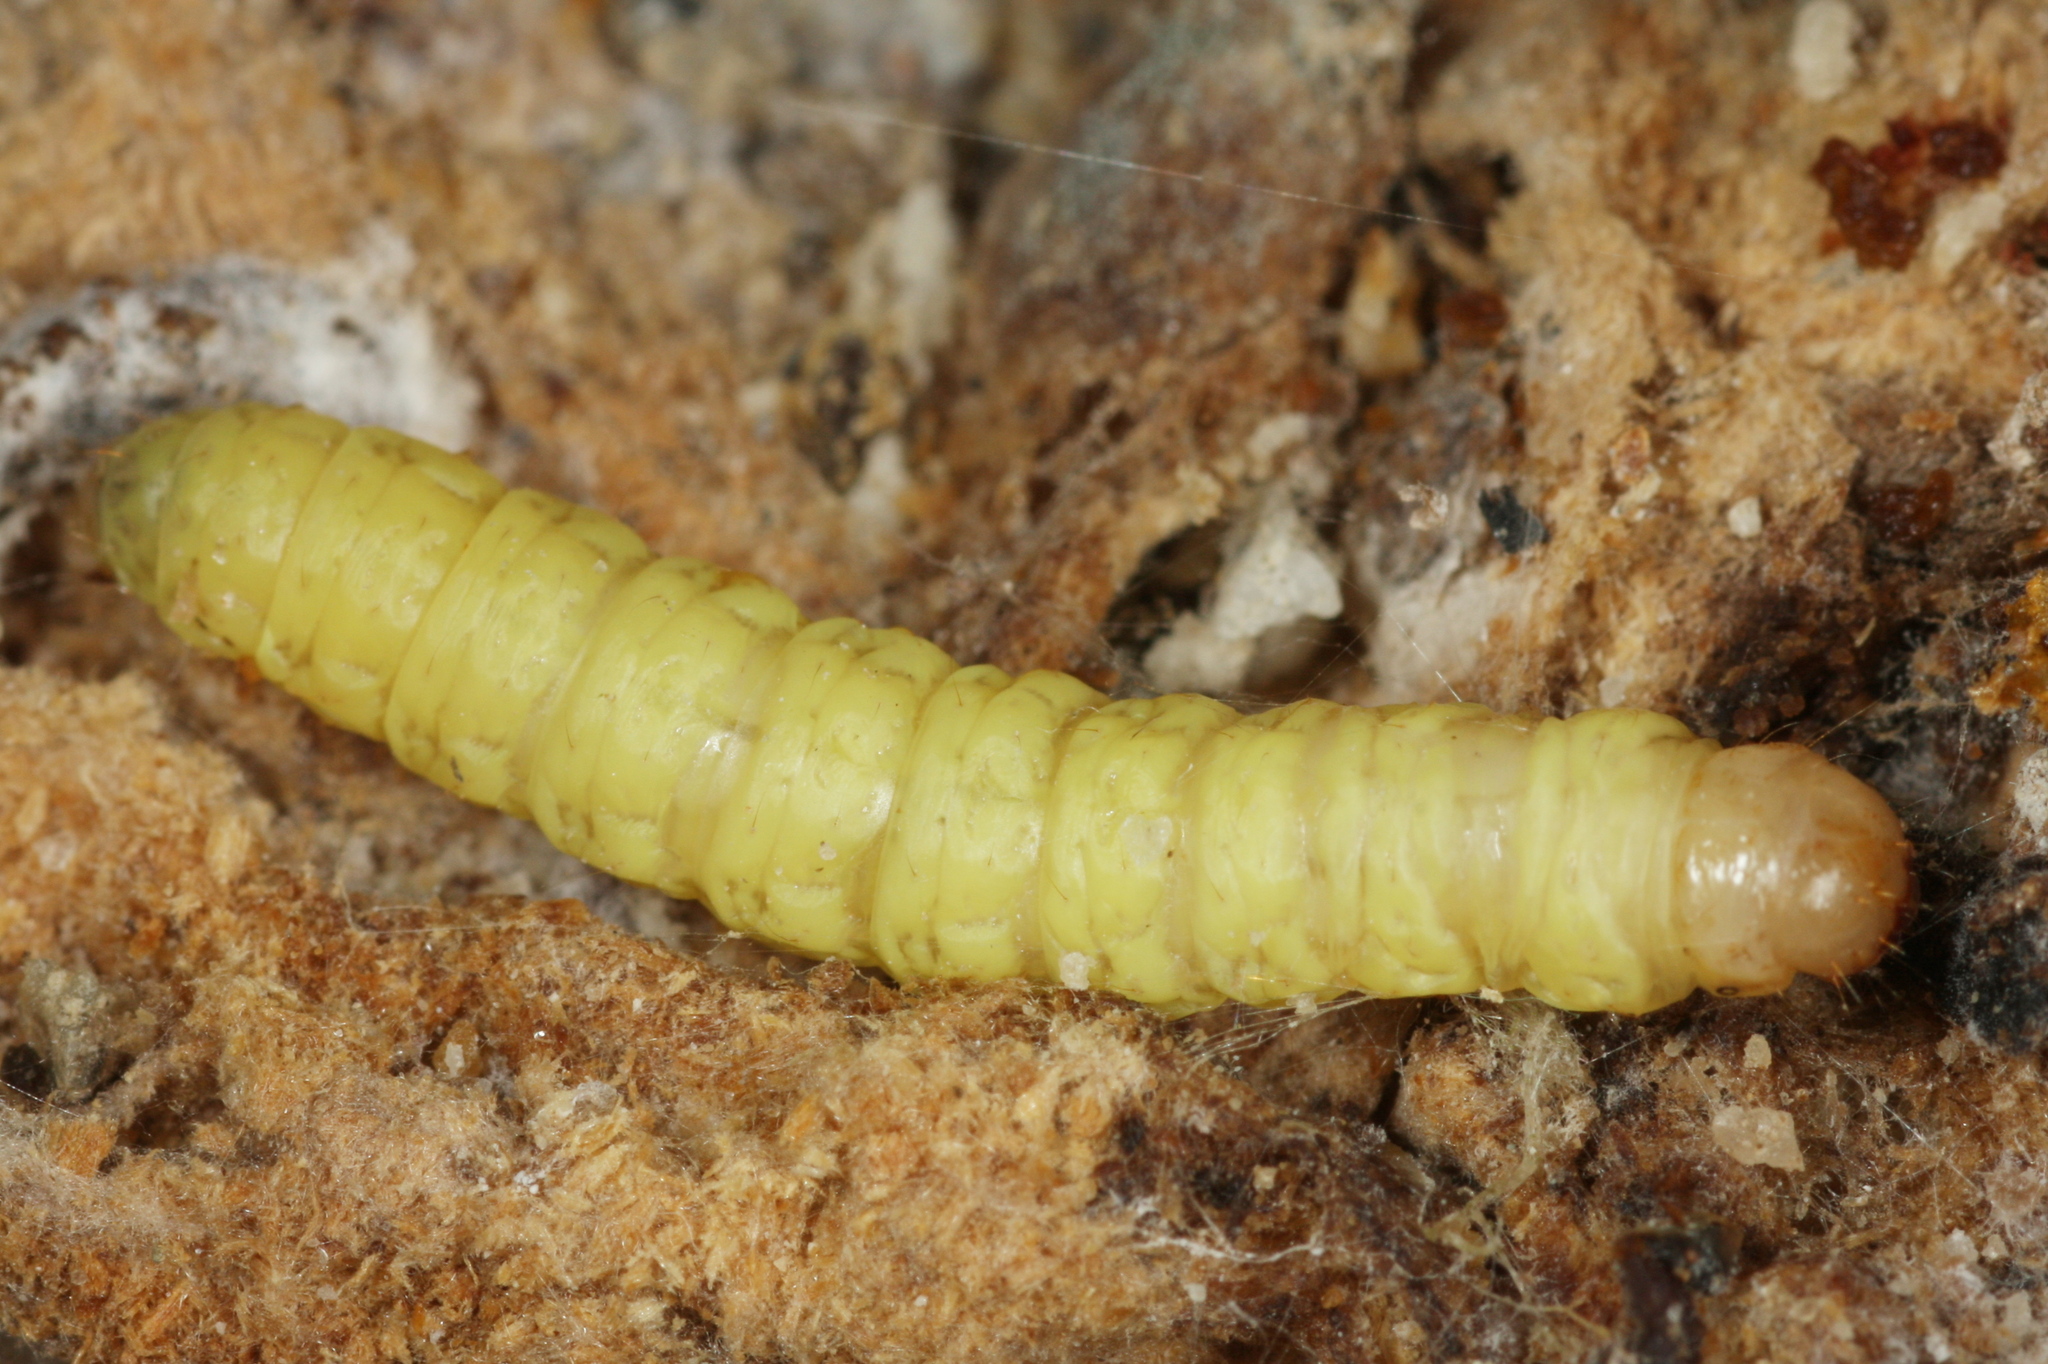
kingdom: Animalia
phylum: Arthropoda
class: Insecta
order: Lepidoptera
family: Pyralidae
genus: Aphomia
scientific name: Aphomia sociella
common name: Bee moth
